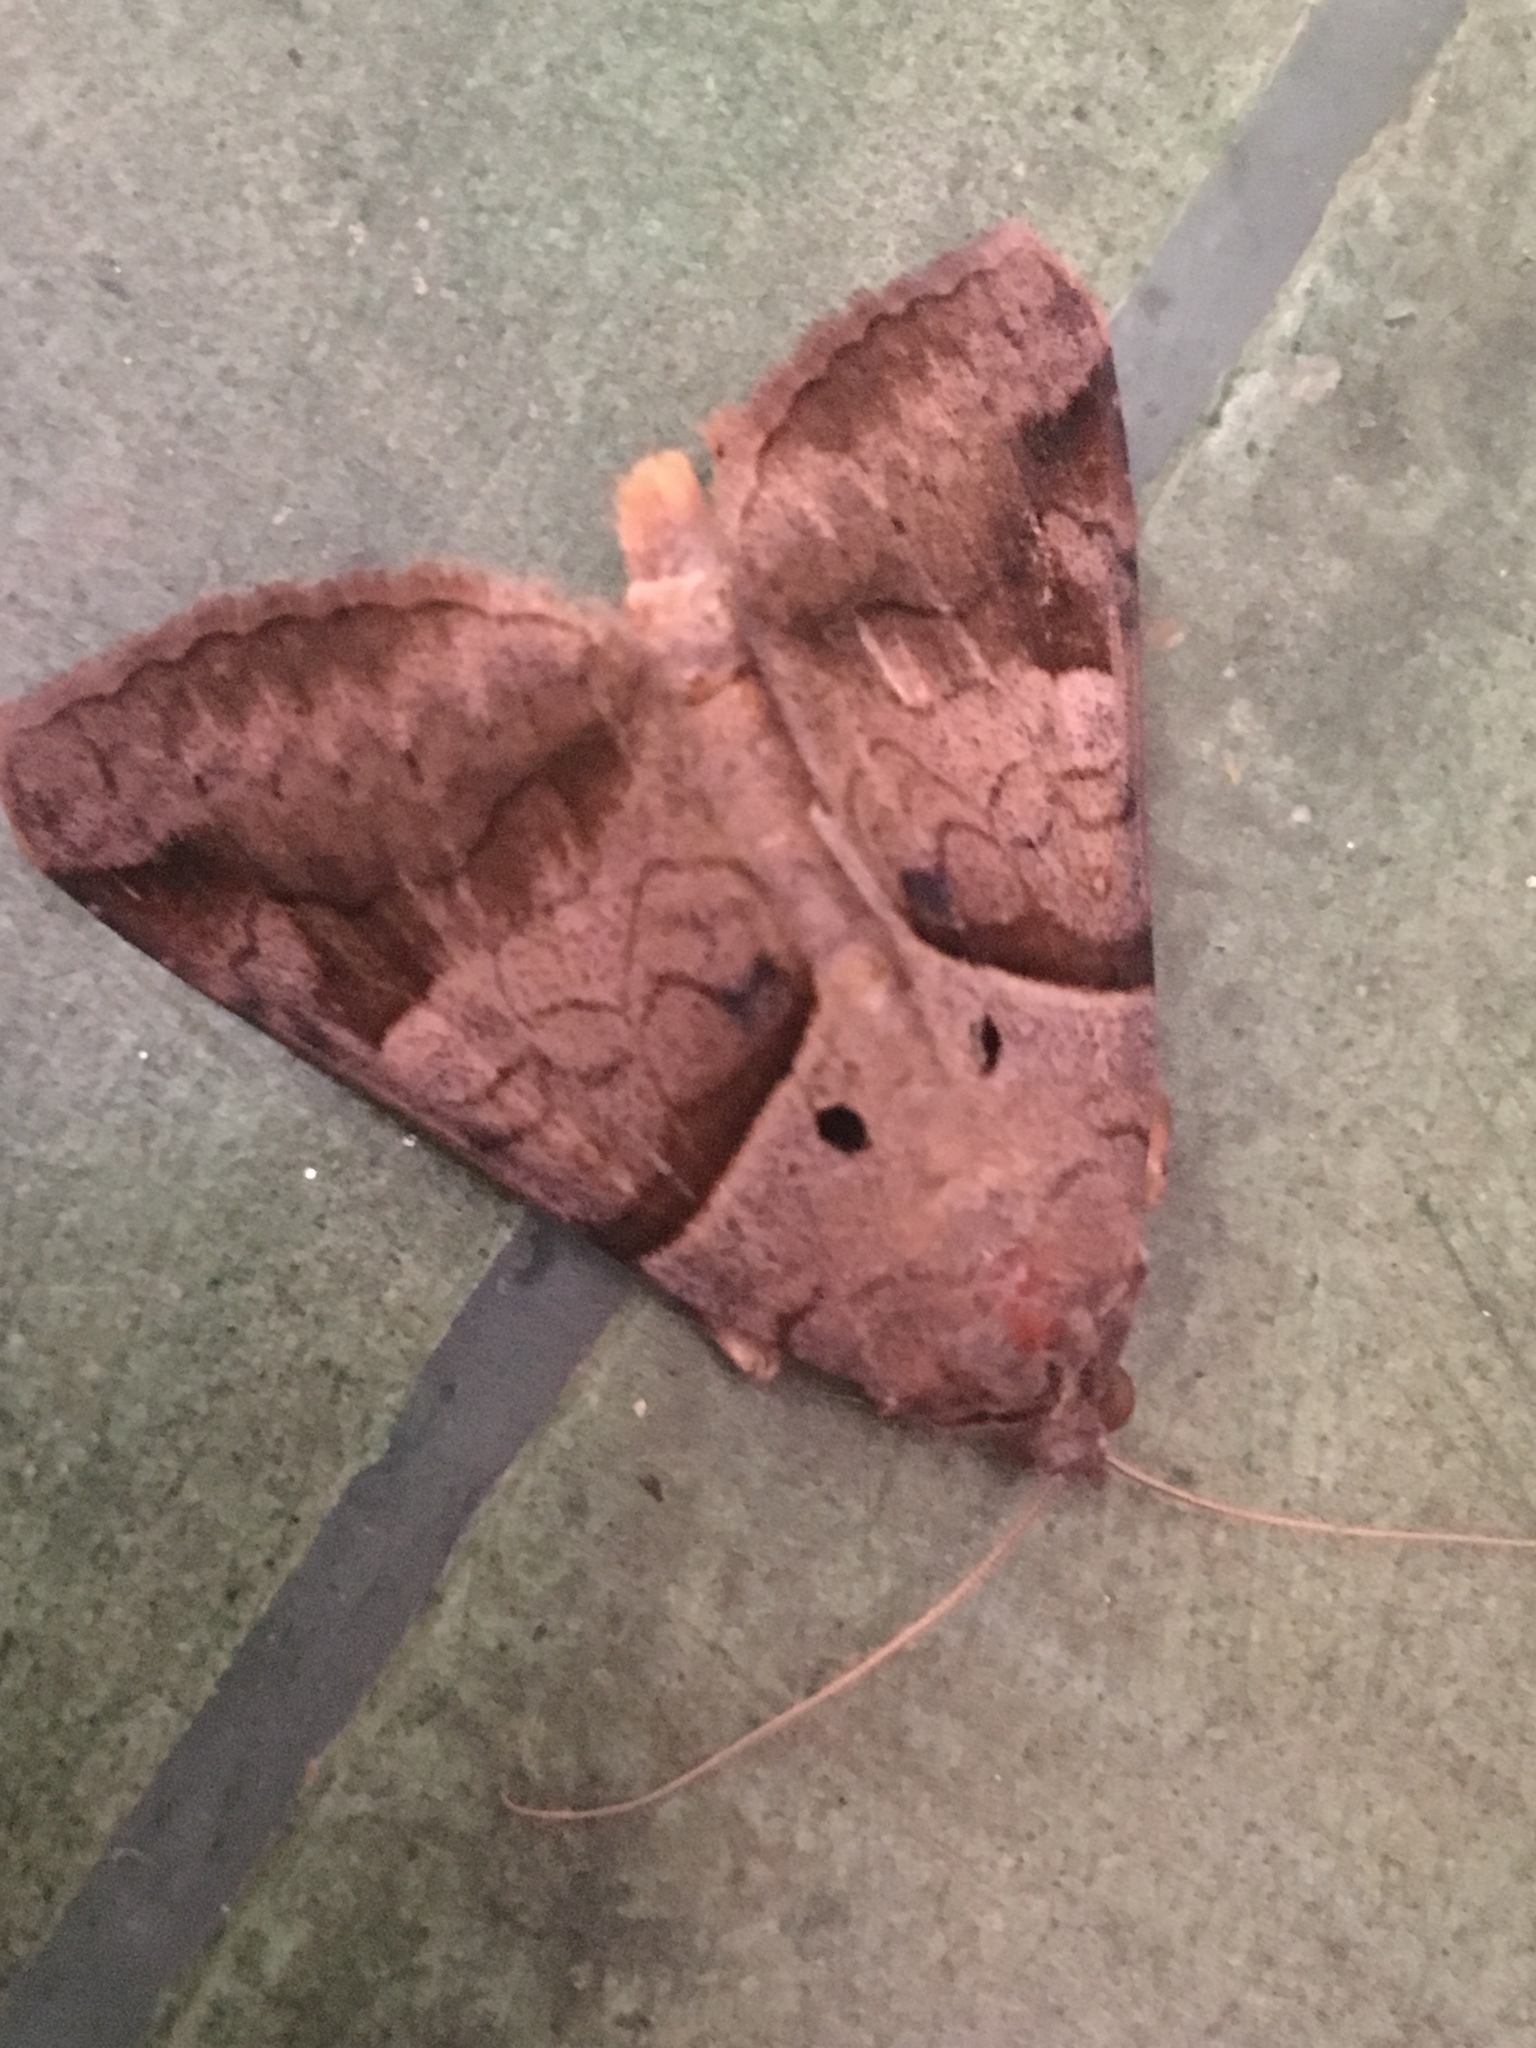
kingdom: Animalia
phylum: Arthropoda
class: Insecta
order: Lepidoptera
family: Erebidae
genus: Mocis
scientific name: Mocis undata
